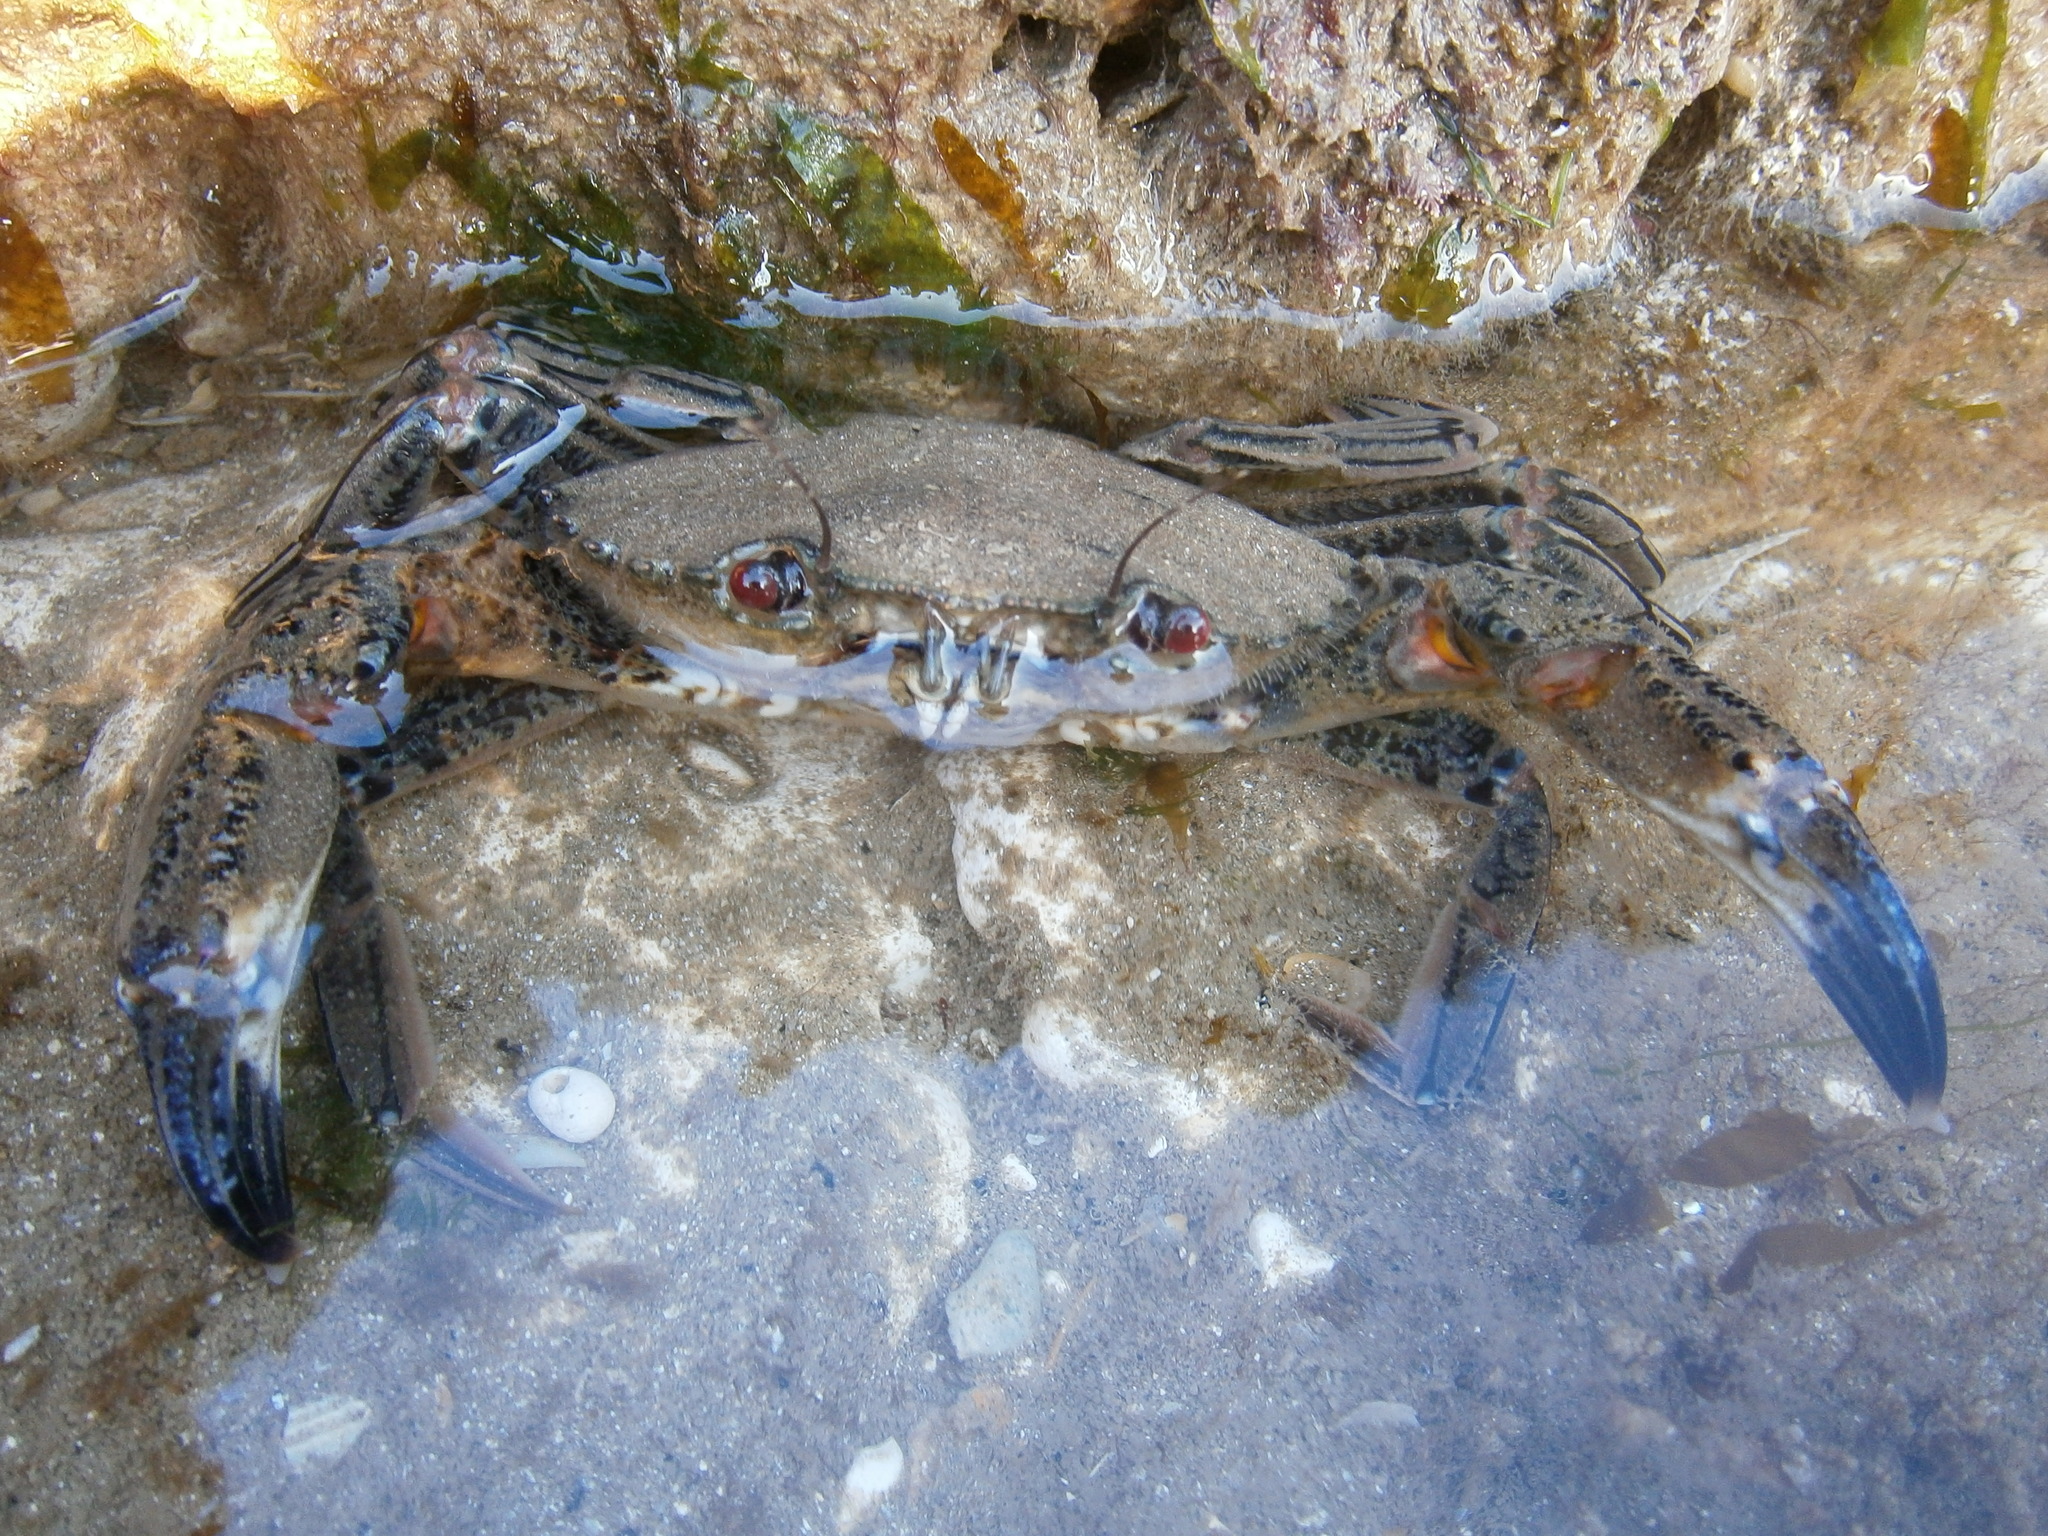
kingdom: Animalia
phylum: Arthropoda
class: Malacostraca
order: Decapoda
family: Polybiidae
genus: Necora
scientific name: Necora puber
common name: Velvet swimming crab
